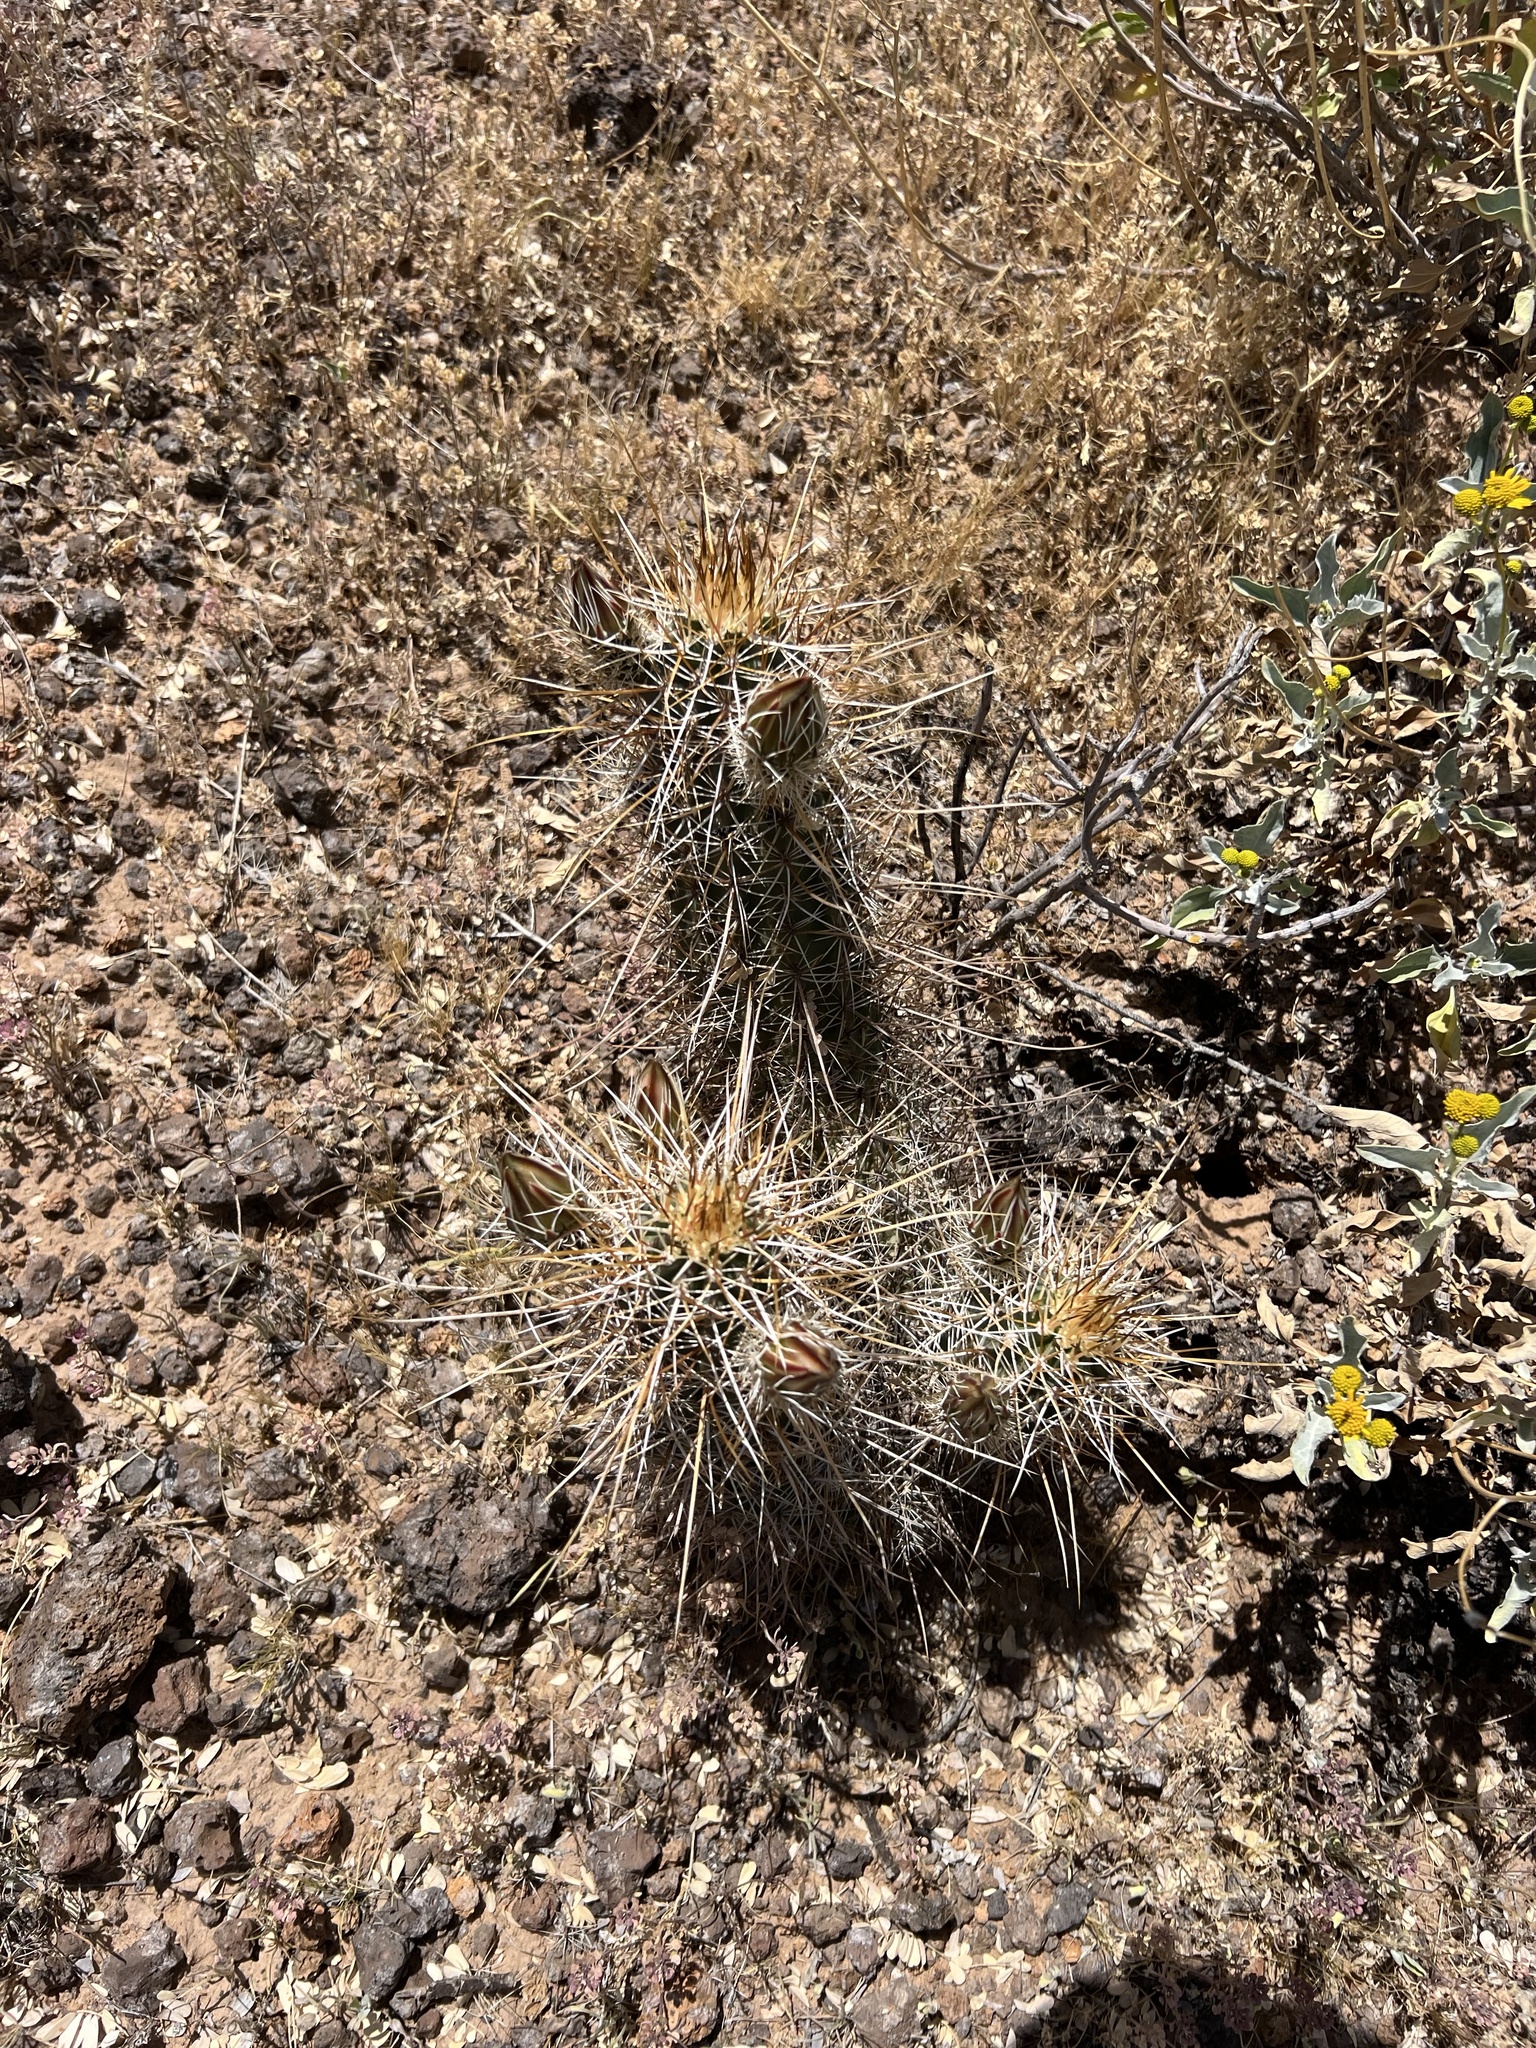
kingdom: Plantae
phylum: Tracheophyta
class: Magnoliopsida
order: Caryophyllales
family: Cactaceae
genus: Echinocereus
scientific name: Echinocereus engelmannii
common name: Engelmann's hedgehog cactus
